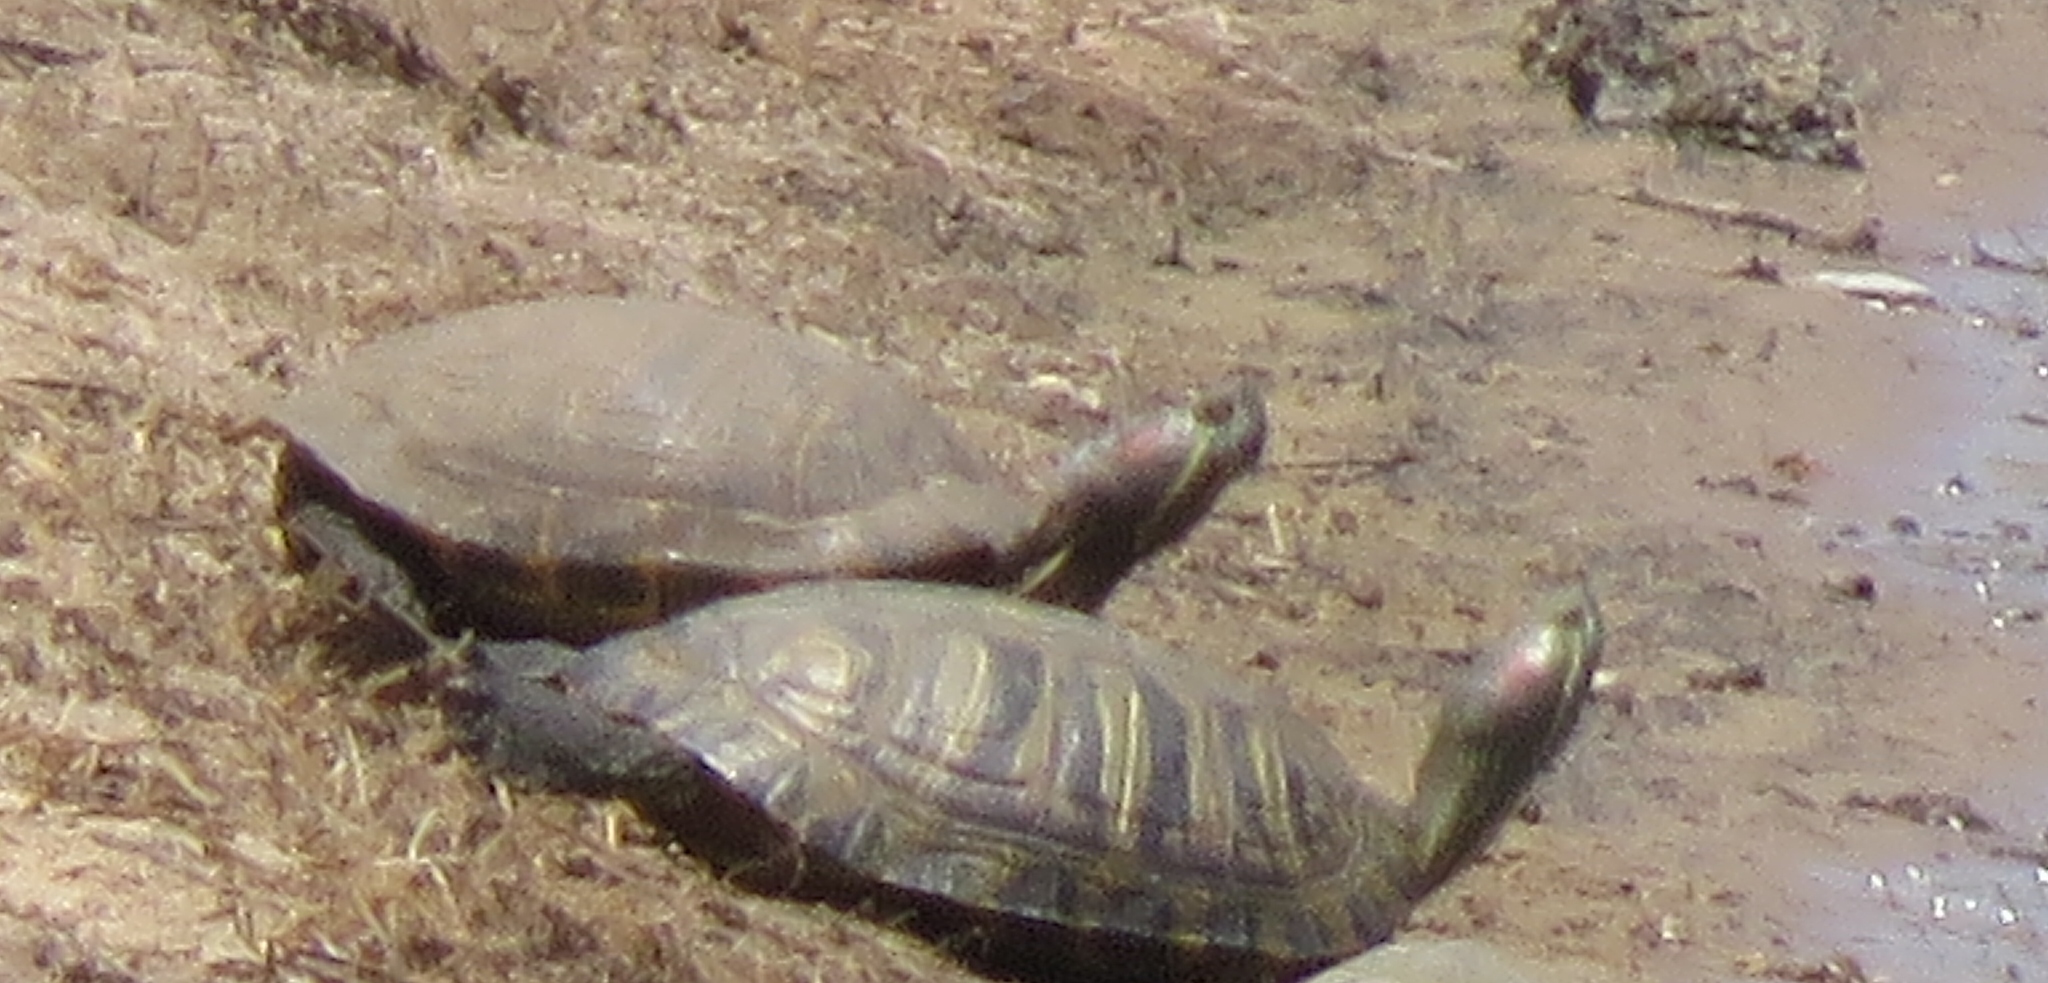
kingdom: Animalia
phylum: Chordata
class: Testudines
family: Emydidae
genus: Trachemys
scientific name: Trachemys scripta
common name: Slider
